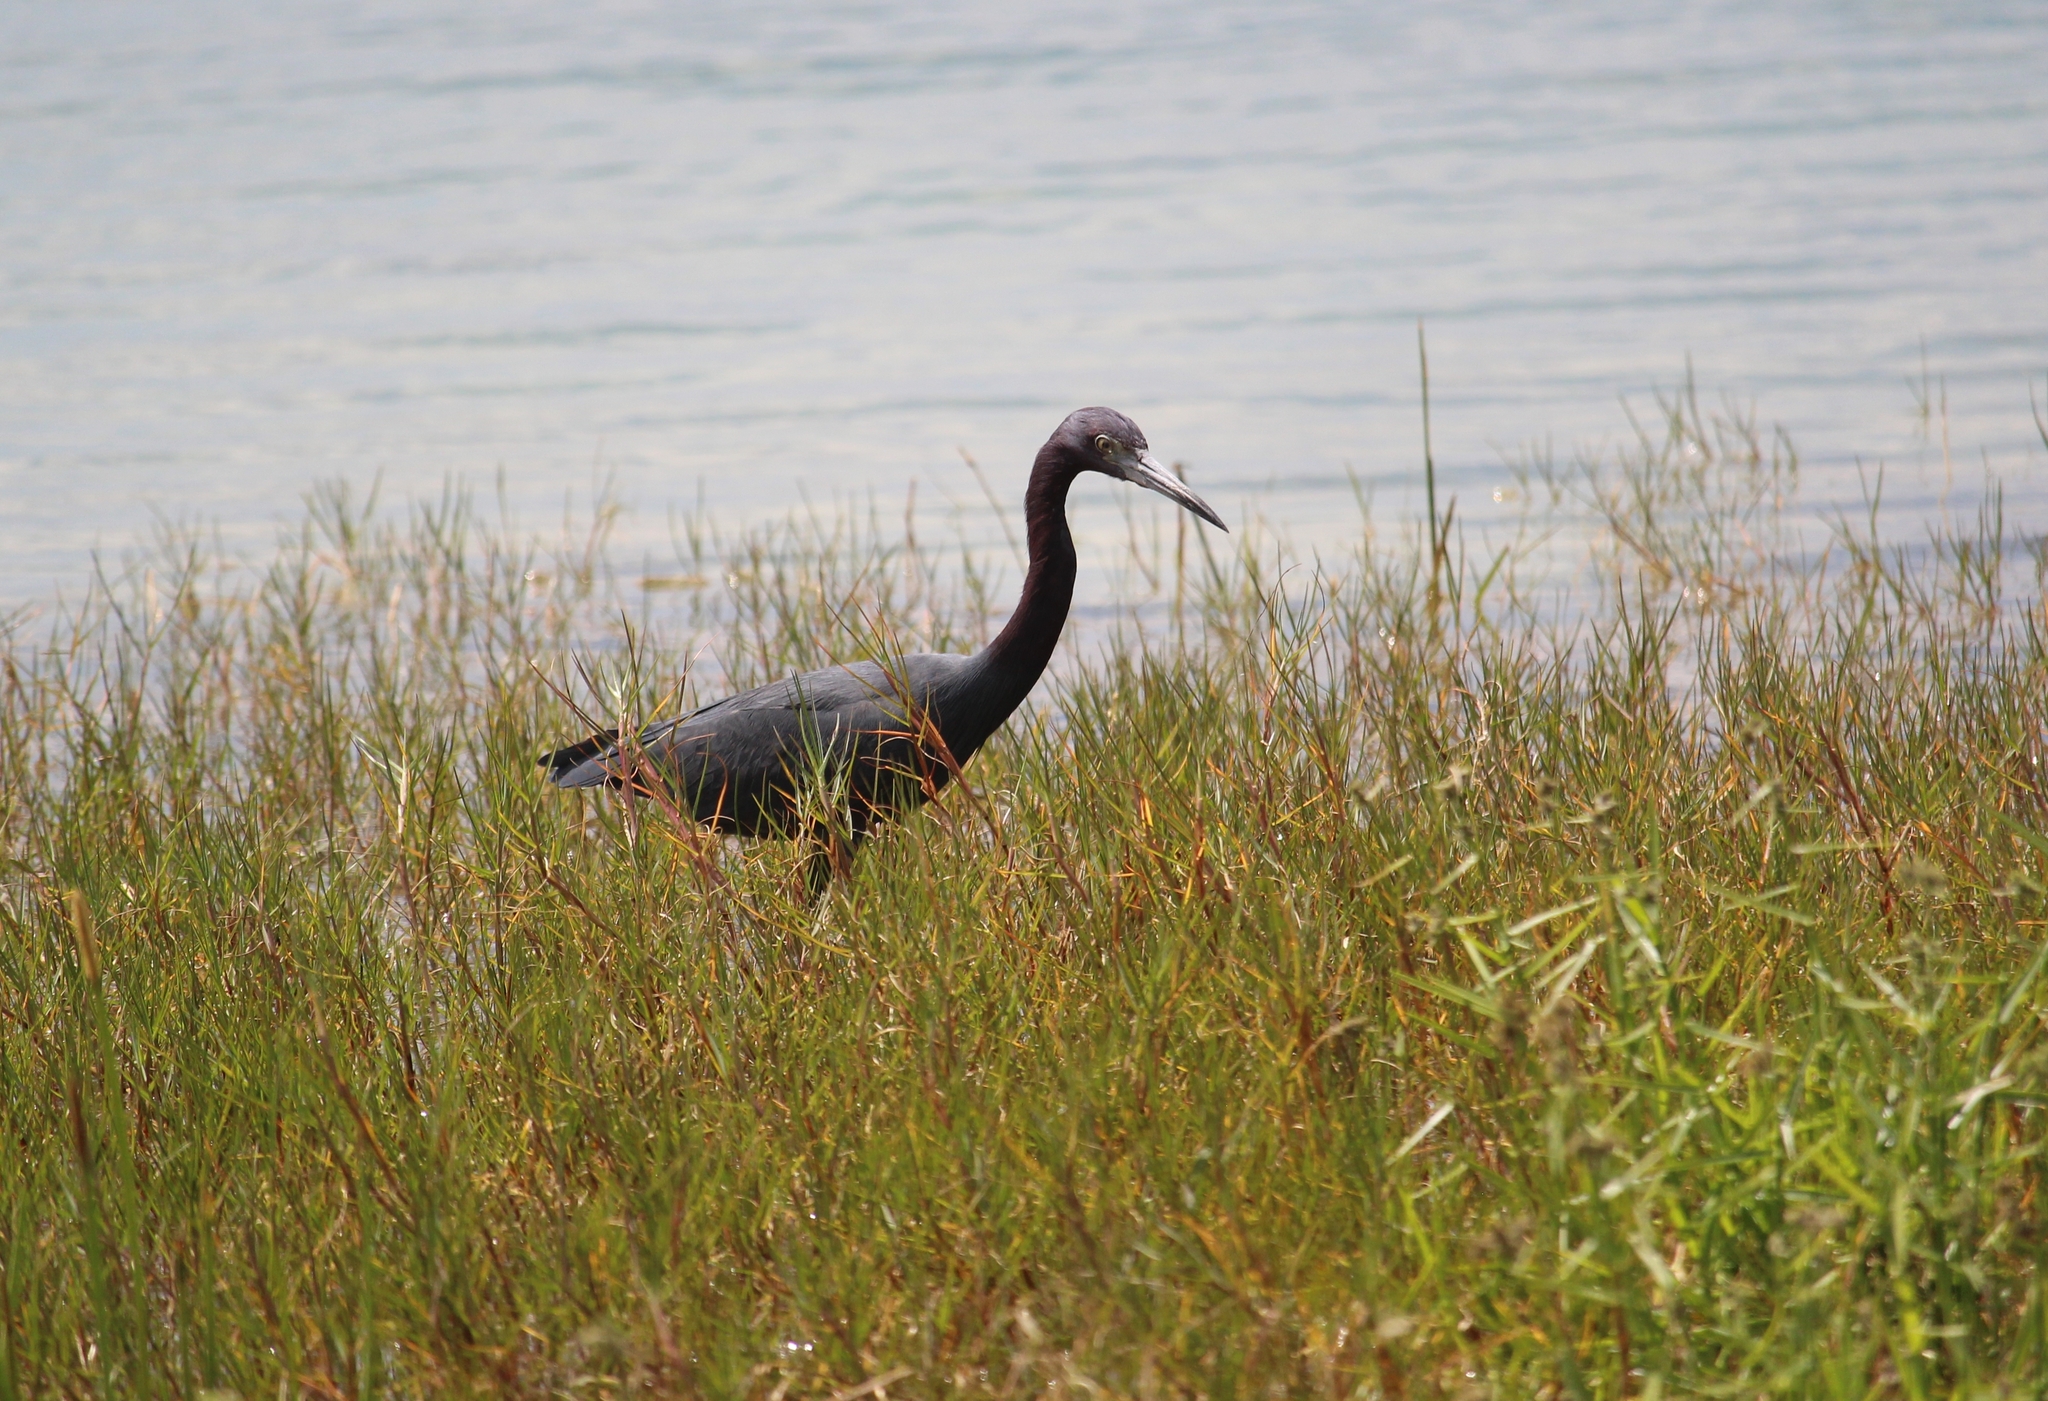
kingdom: Animalia
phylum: Chordata
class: Aves
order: Pelecaniformes
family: Ardeidae
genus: Egretta
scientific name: Egretta caerulea
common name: Little blue heron
